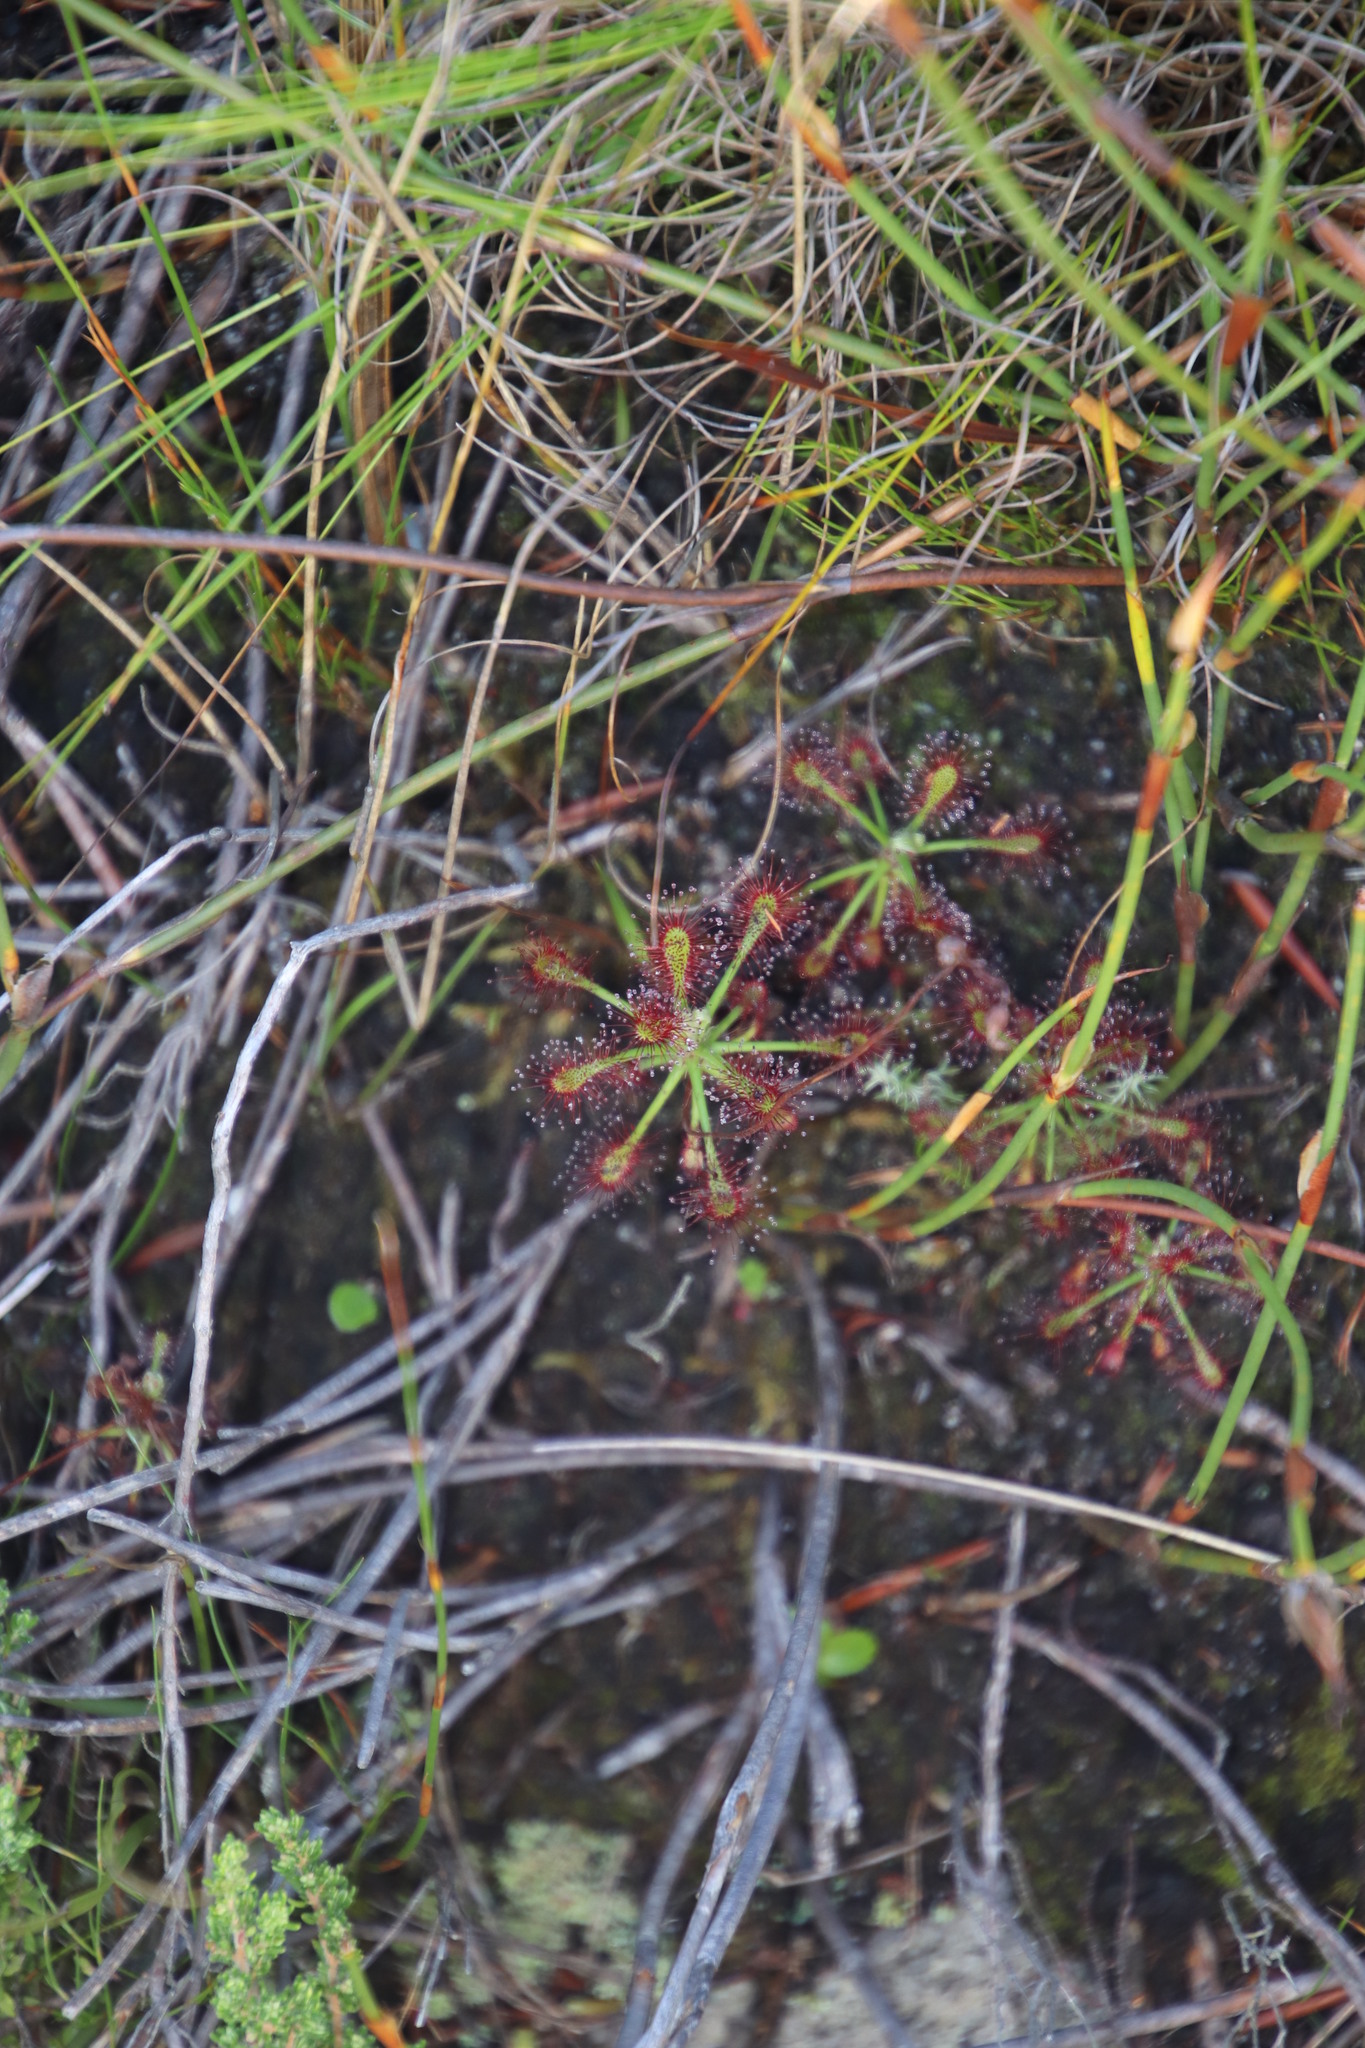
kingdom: Plantae
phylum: Tracheophyta
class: Magnoliopsida
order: Caryophyllales
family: Droseraceae
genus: Drosera
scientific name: Drosera glabripes
